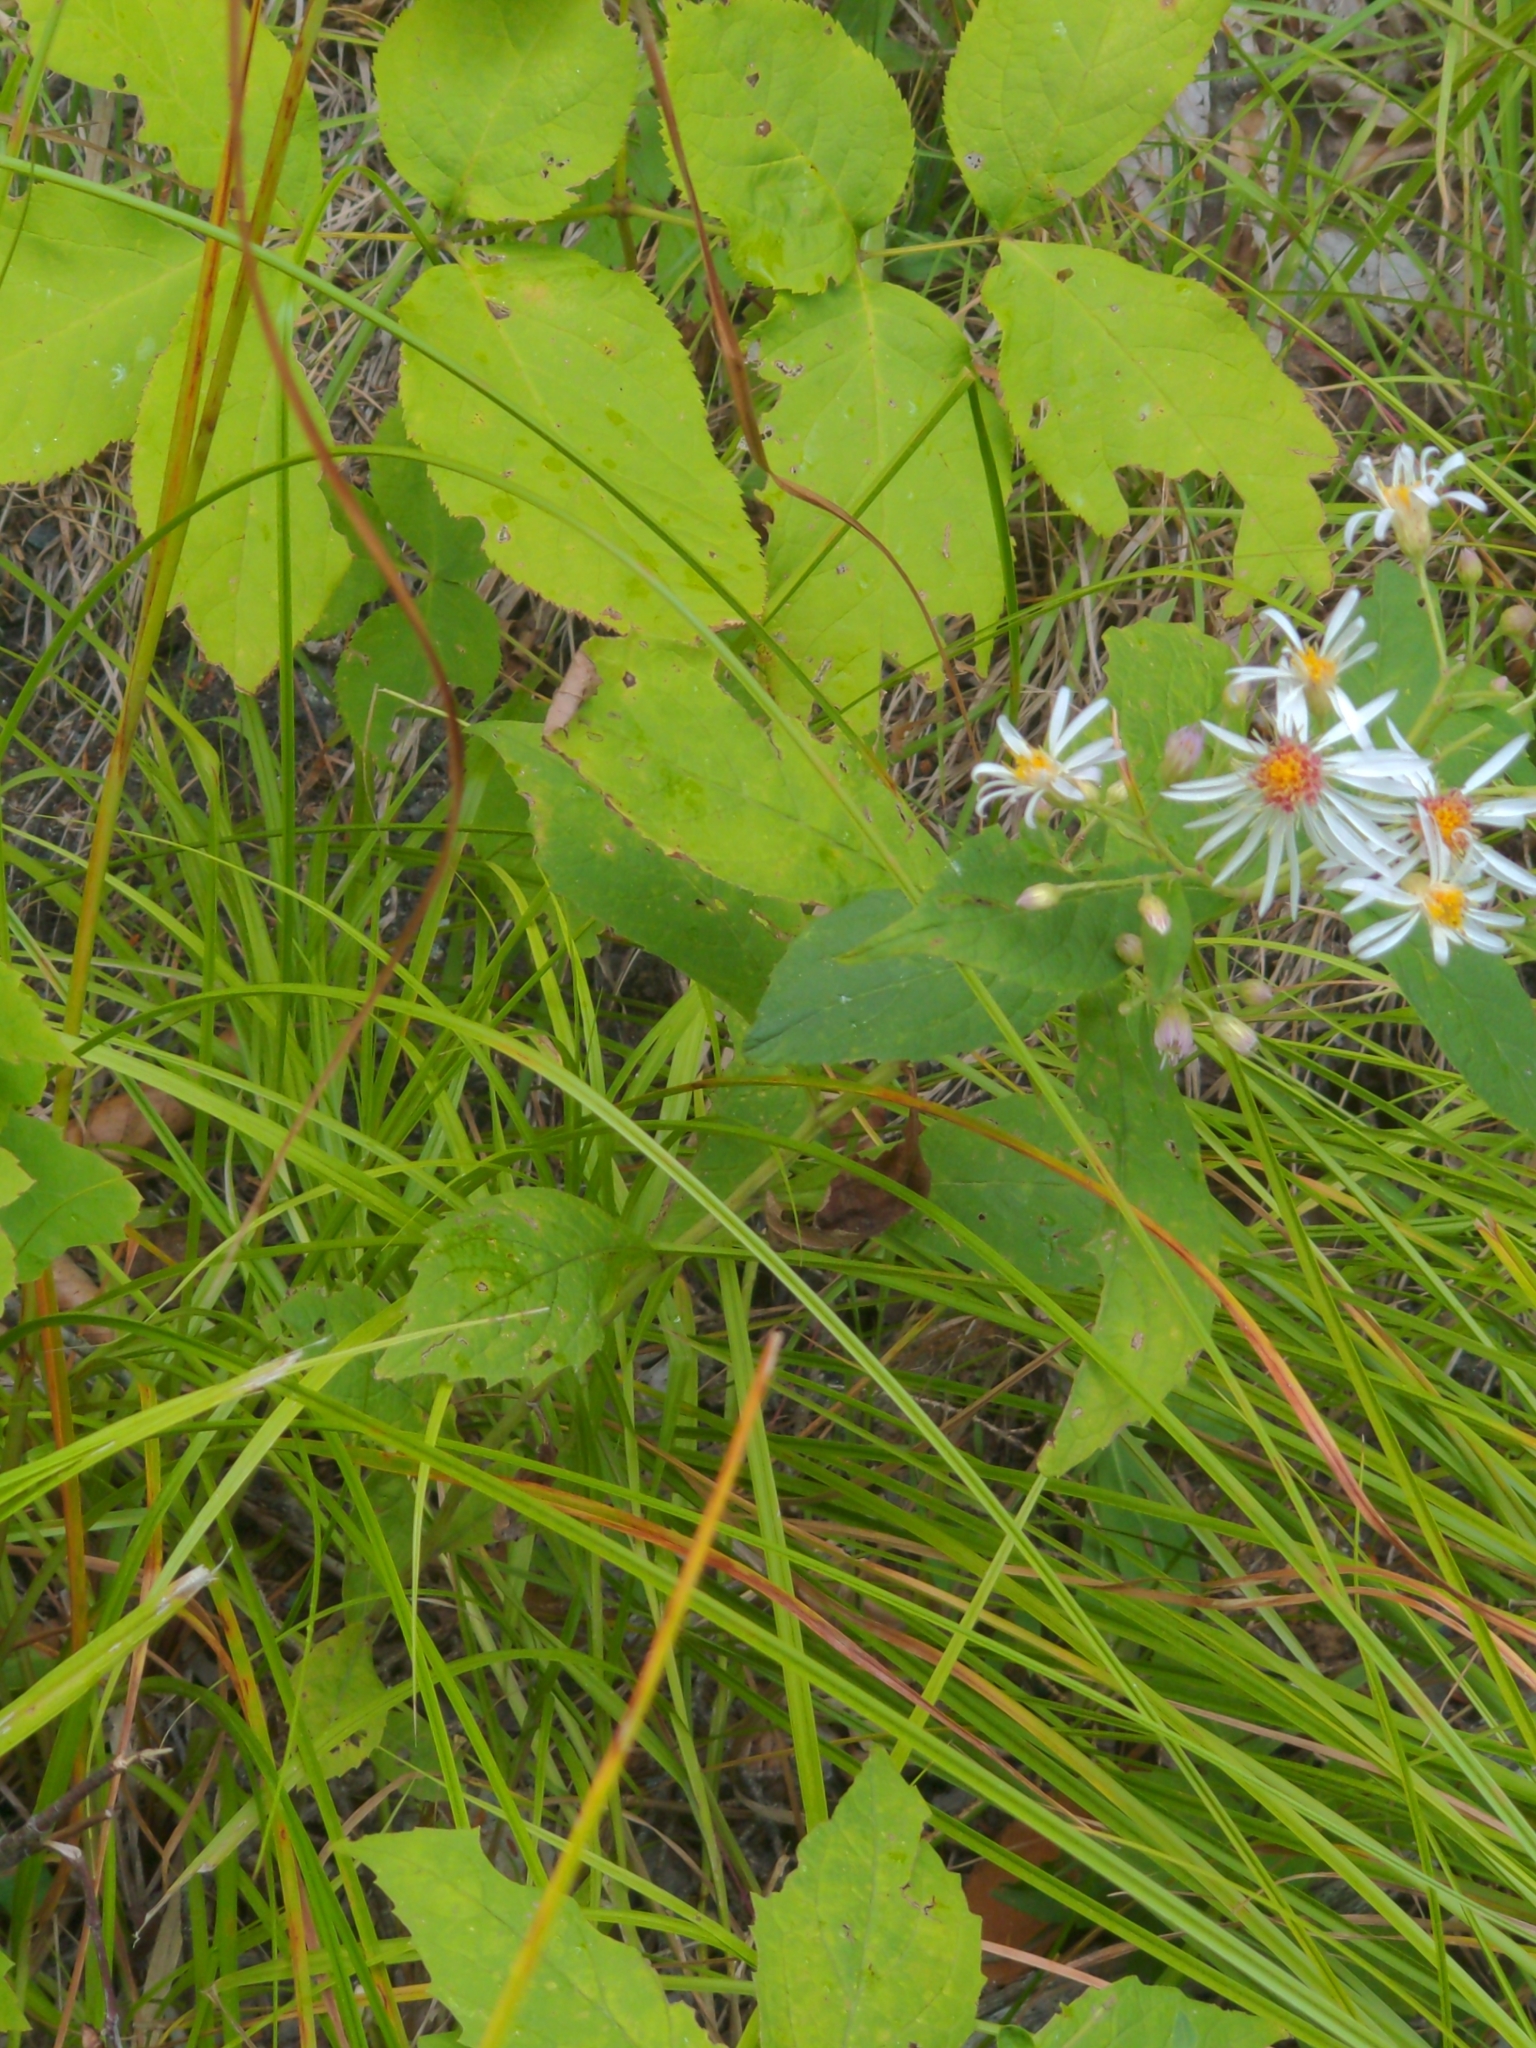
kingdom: Plantae
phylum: Tracheophyta
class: Magnoliopsida
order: Asterales
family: Asteraceae
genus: Oclemena
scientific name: Oclemena acuminata
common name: Mountain aster
